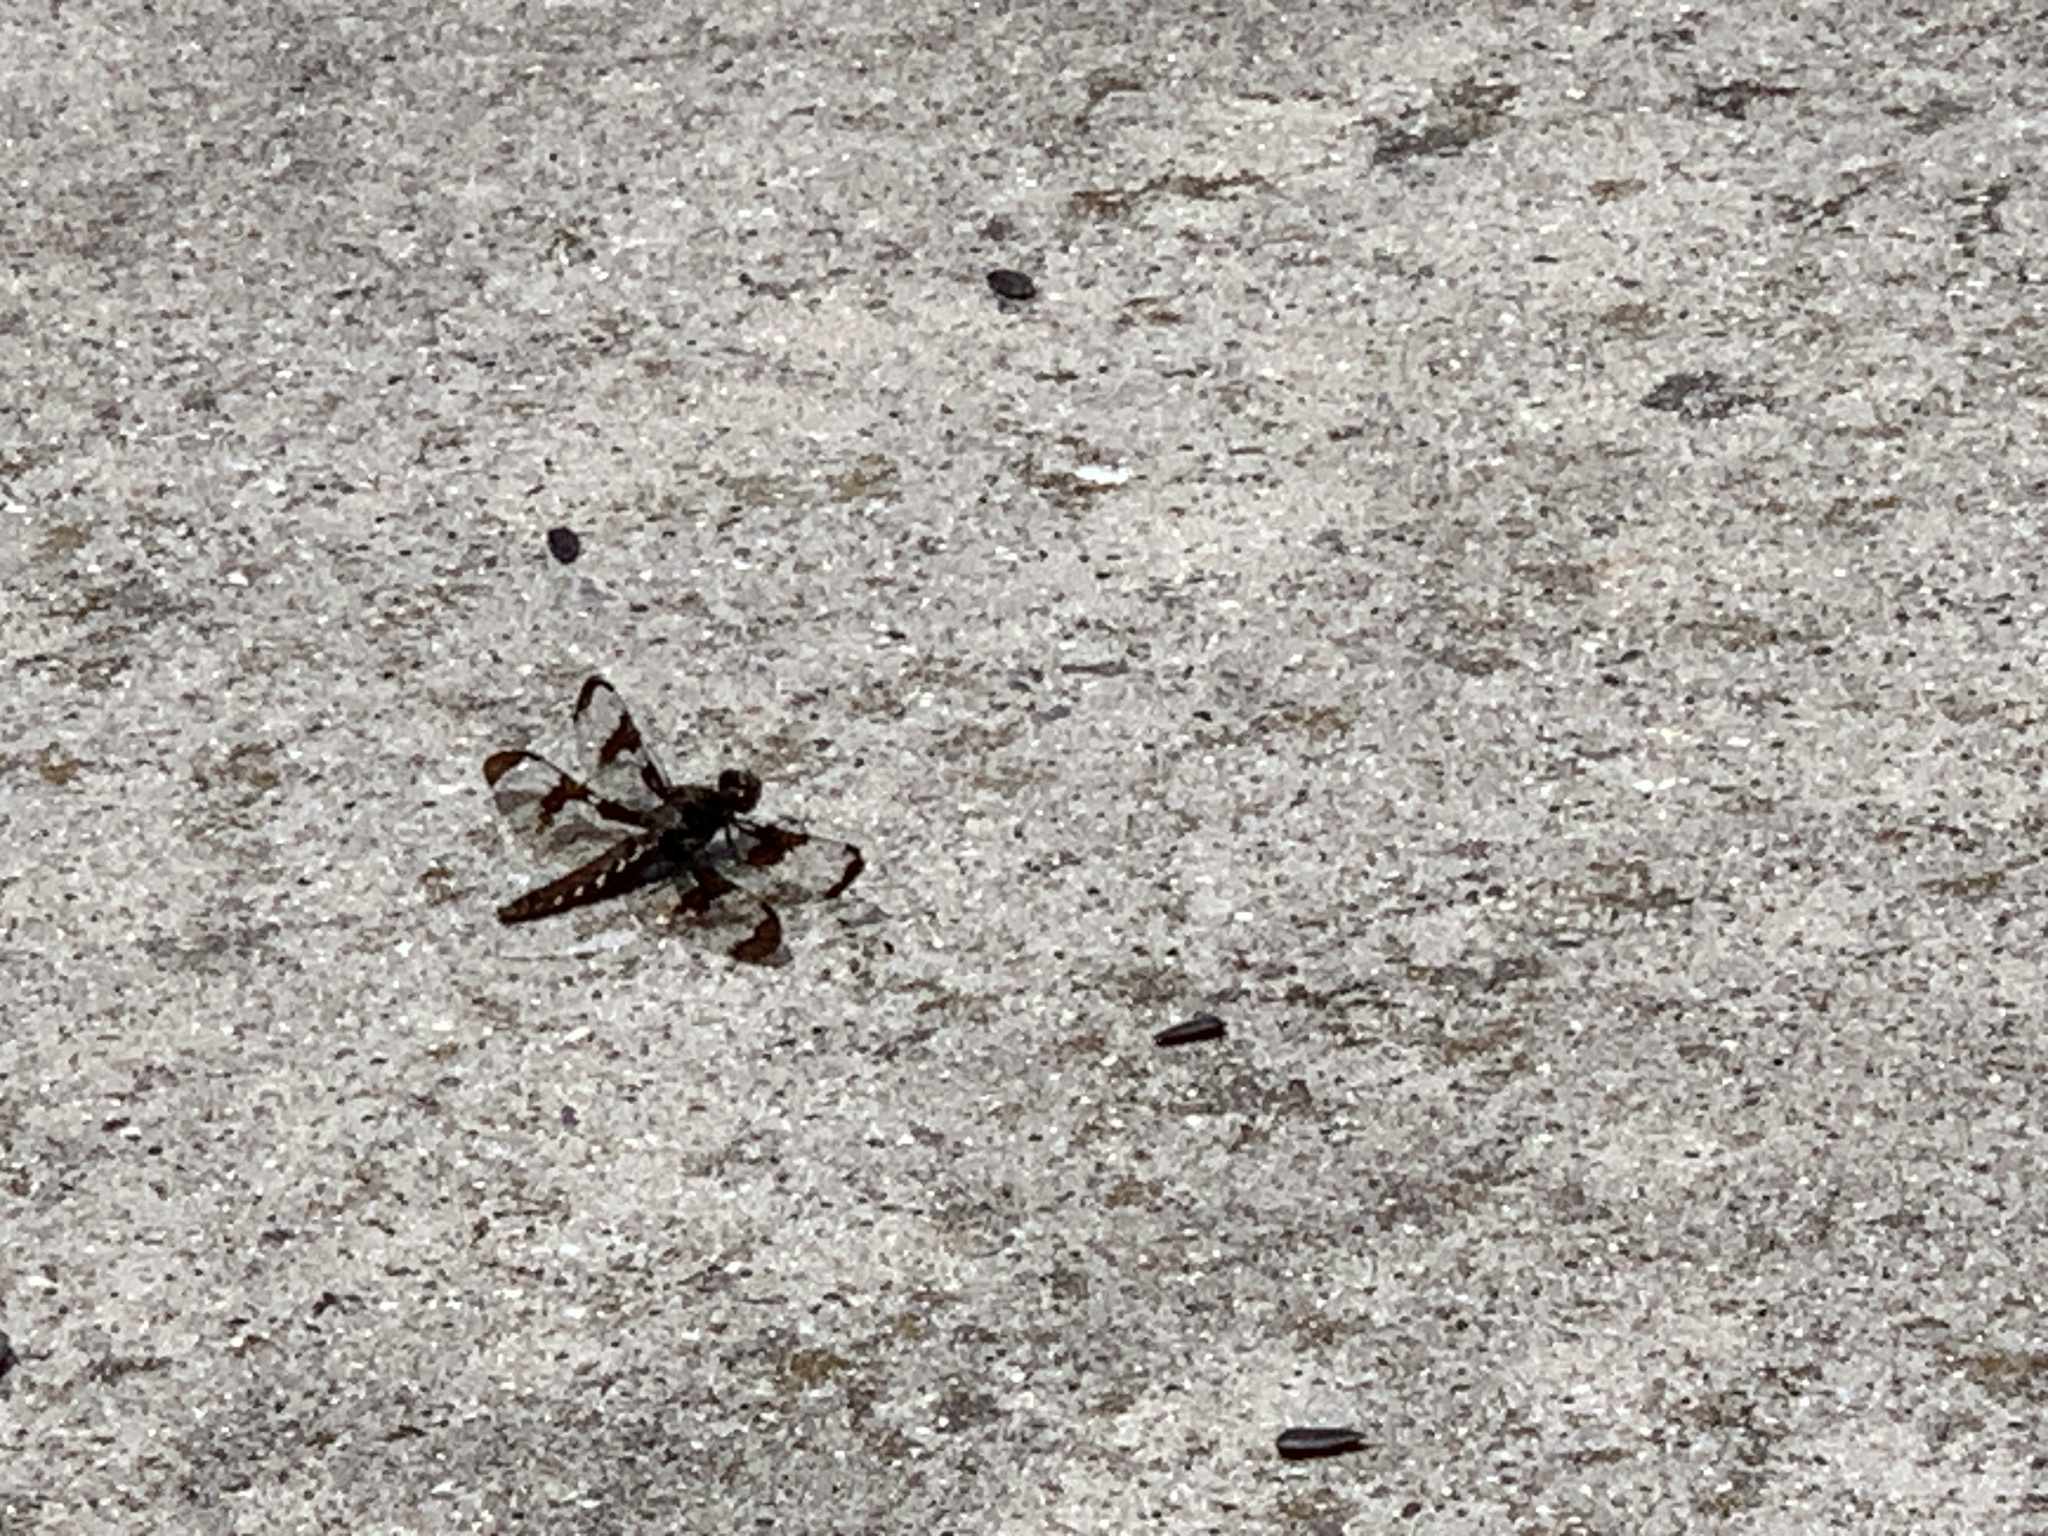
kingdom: Animalia
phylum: Arthropoda
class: Insecta
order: Odonata
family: Libellulidae
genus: Plathemis
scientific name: Plathemis lydia
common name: Common whitetail
